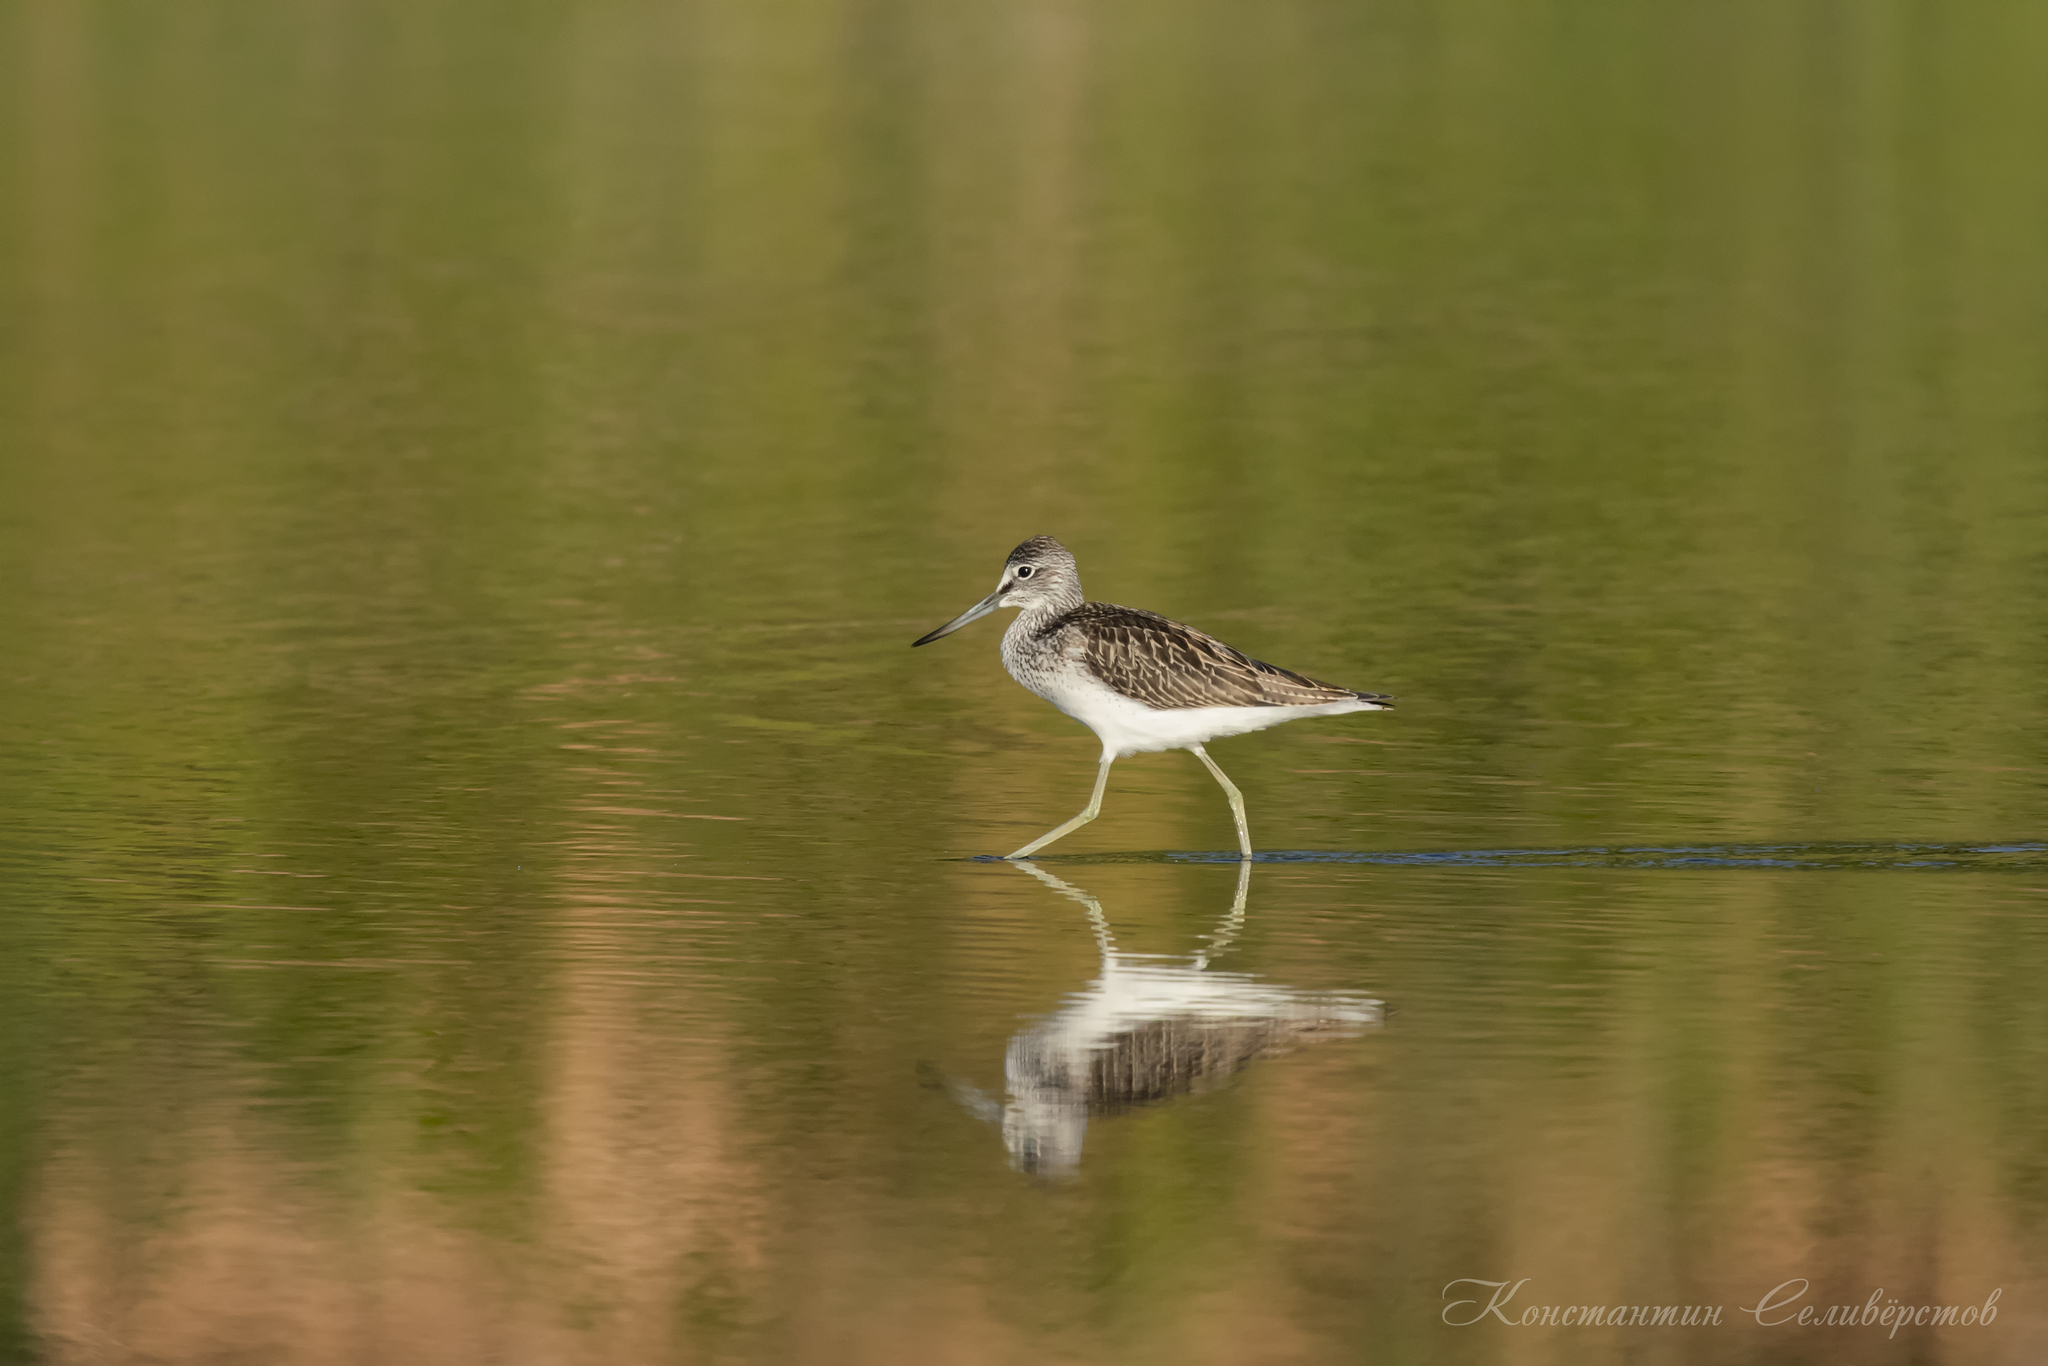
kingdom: Animalia
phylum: Chordata
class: Aves
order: Charadriiformes
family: Scolopacidae
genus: Tringa
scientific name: Tringa nebularia
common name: Common greenshank
